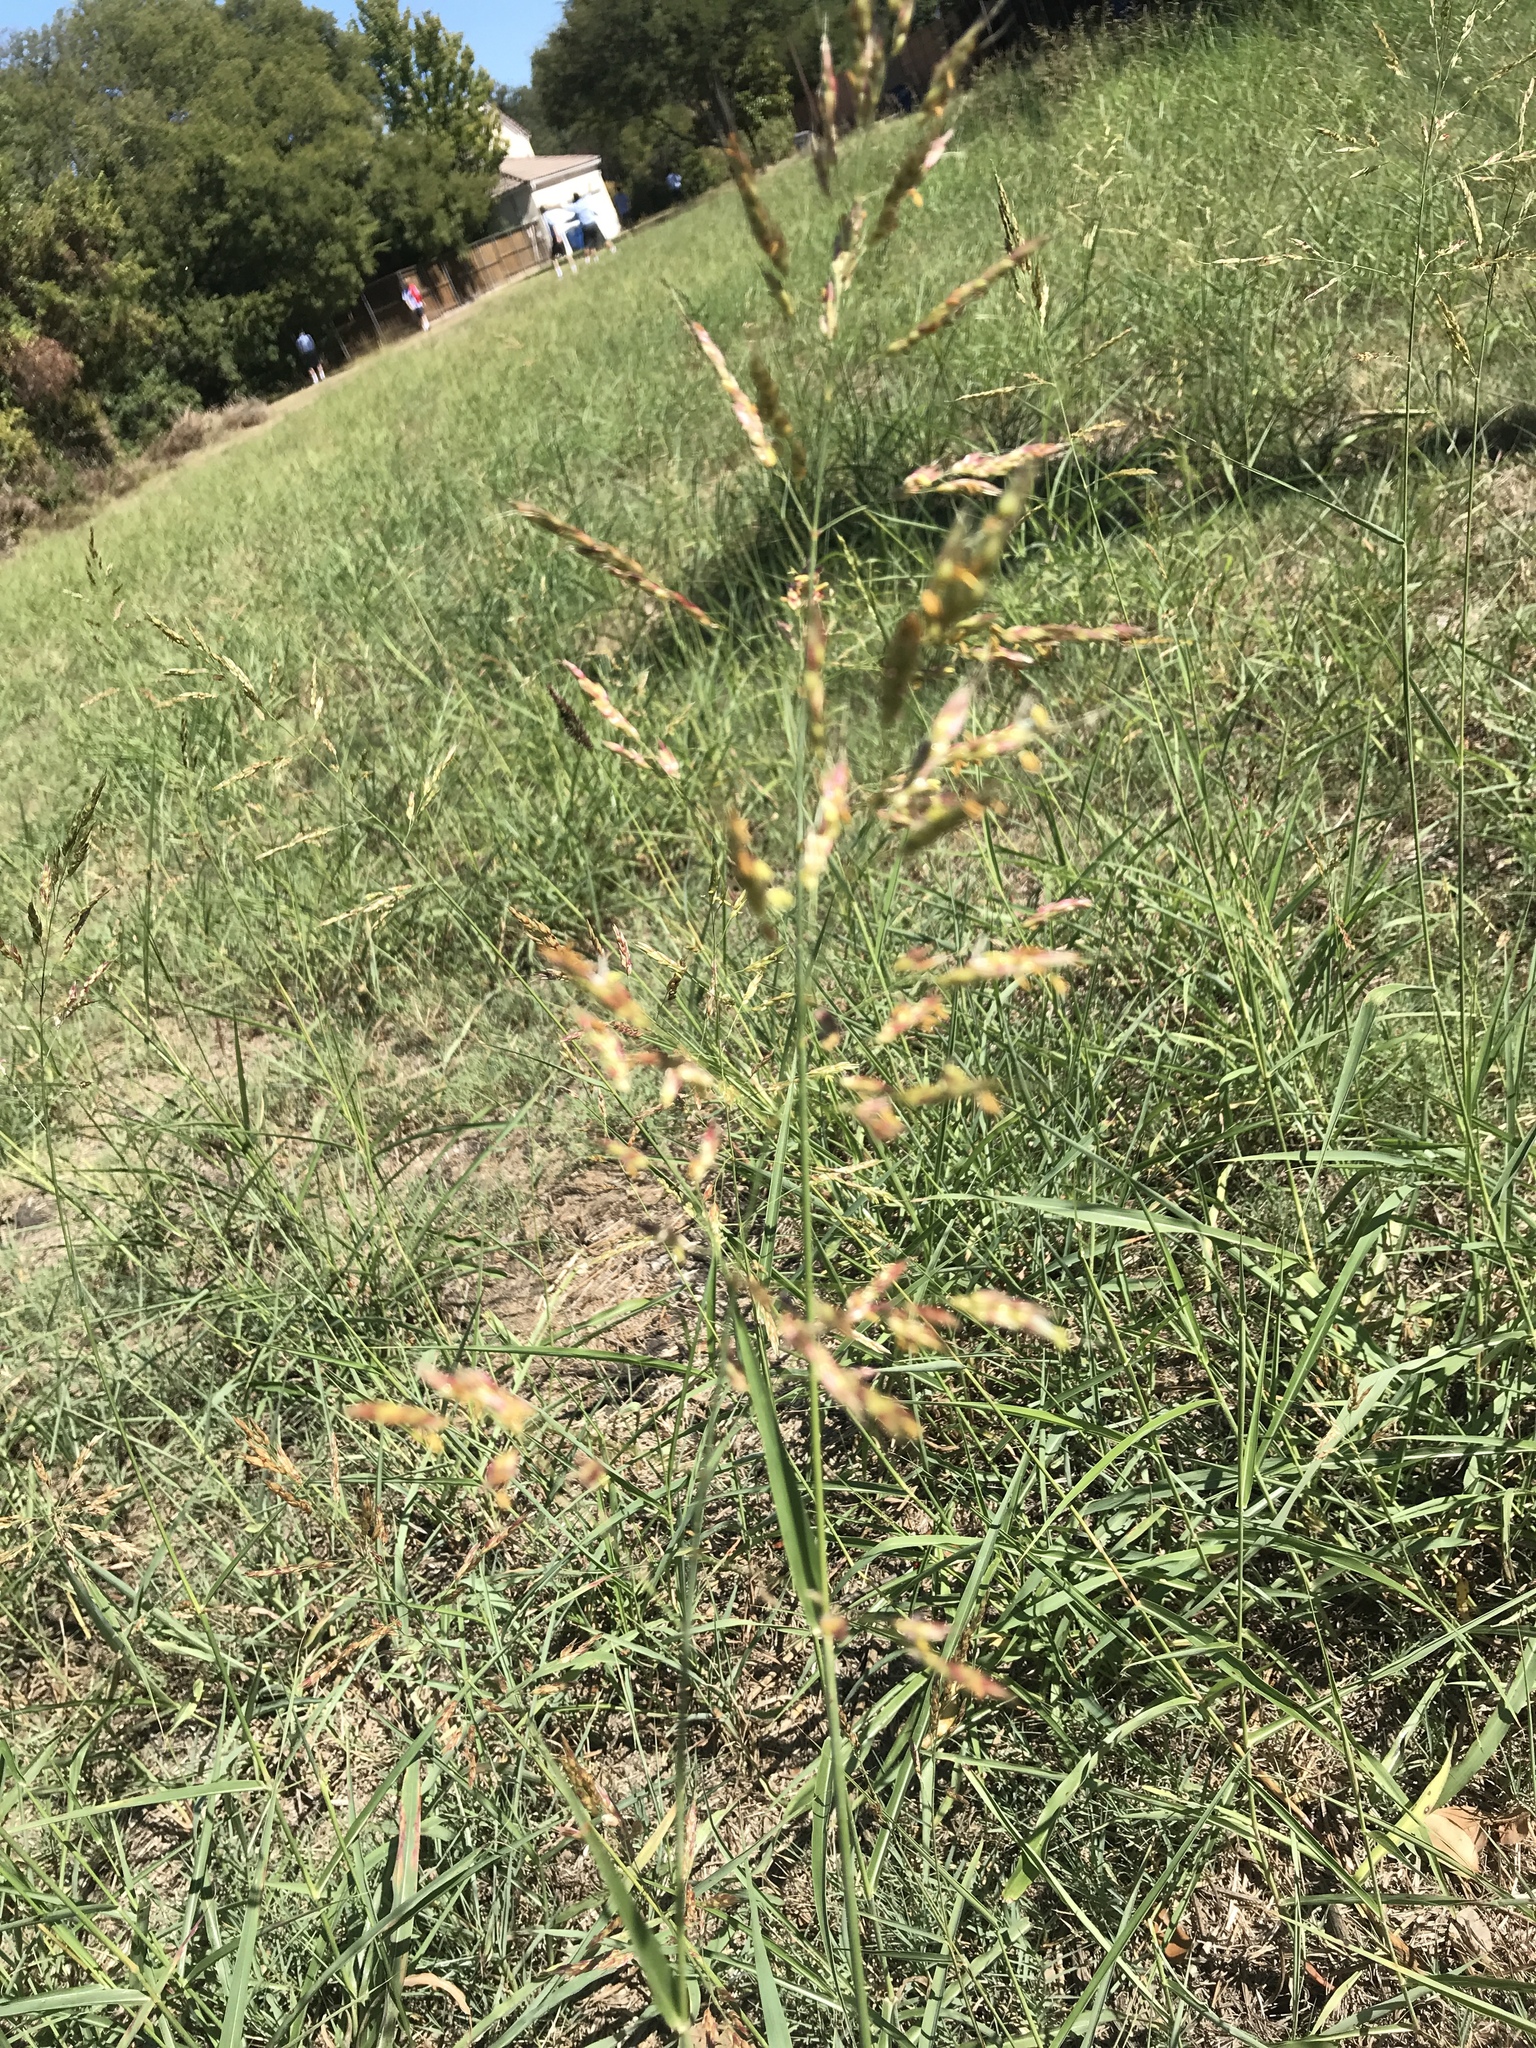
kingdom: Plantae
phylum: Tracheophyta
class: Liliopsida
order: Poales
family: Poaceae
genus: Sorghum
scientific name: Sorghum halepense
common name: Johnson-grass
